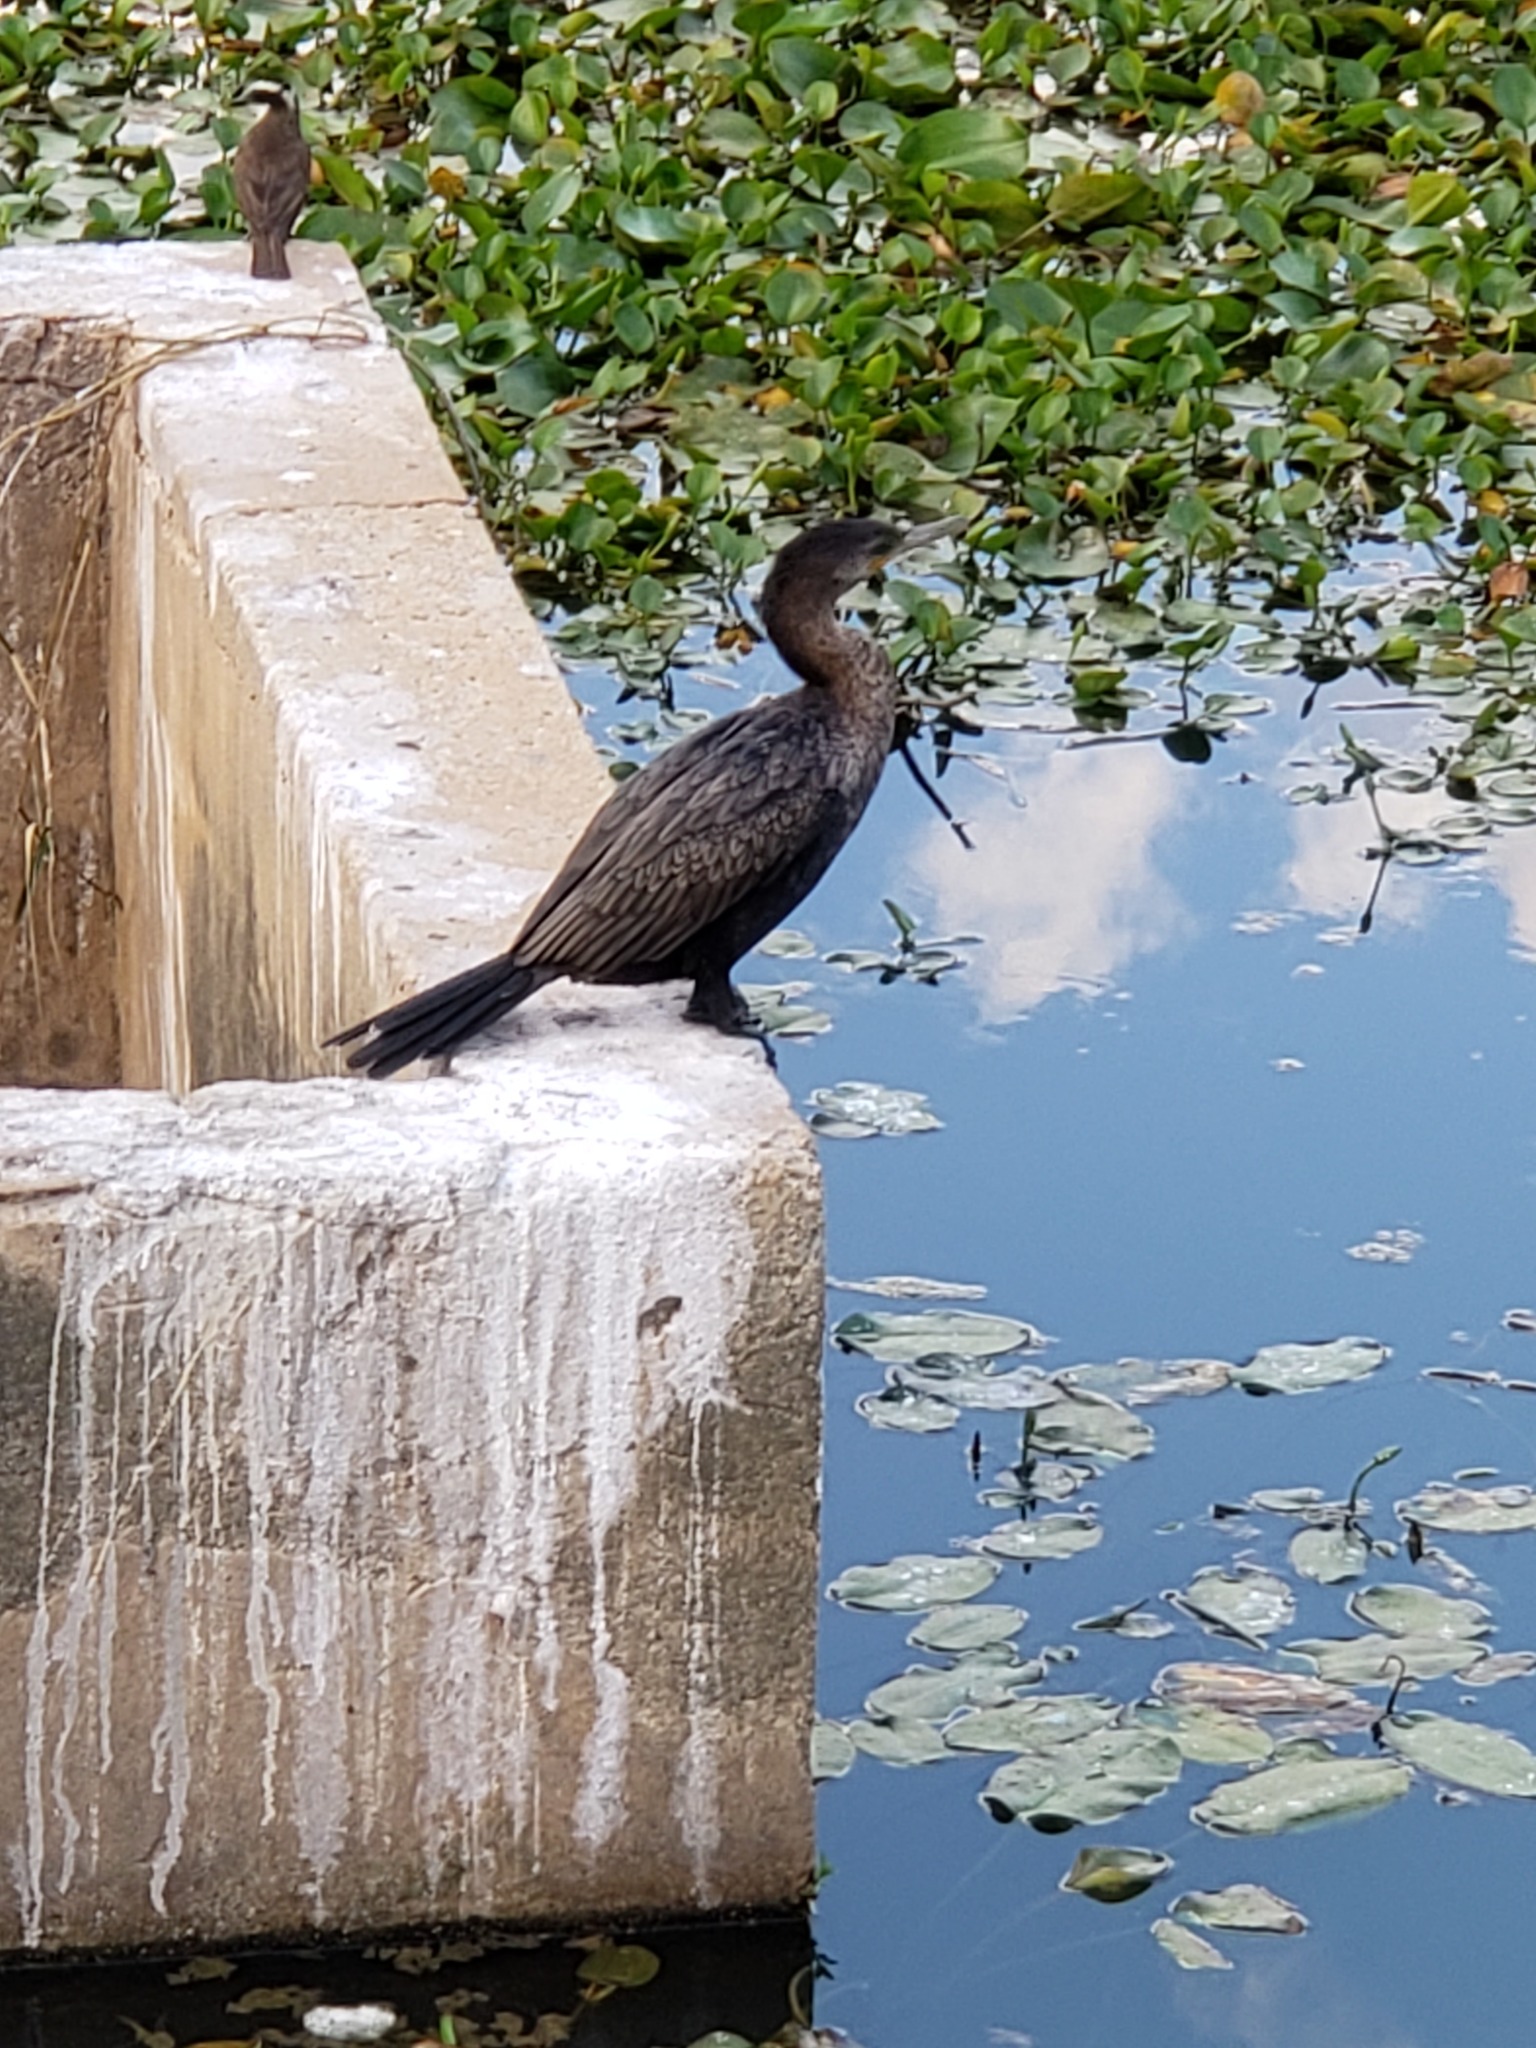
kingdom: Animalia
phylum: Chordata
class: Aves
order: Suliformes
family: Phalacrocoracidae
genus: Phalacrocorax
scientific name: Phalacrocorax brasilianus
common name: Neotropic cormorant
